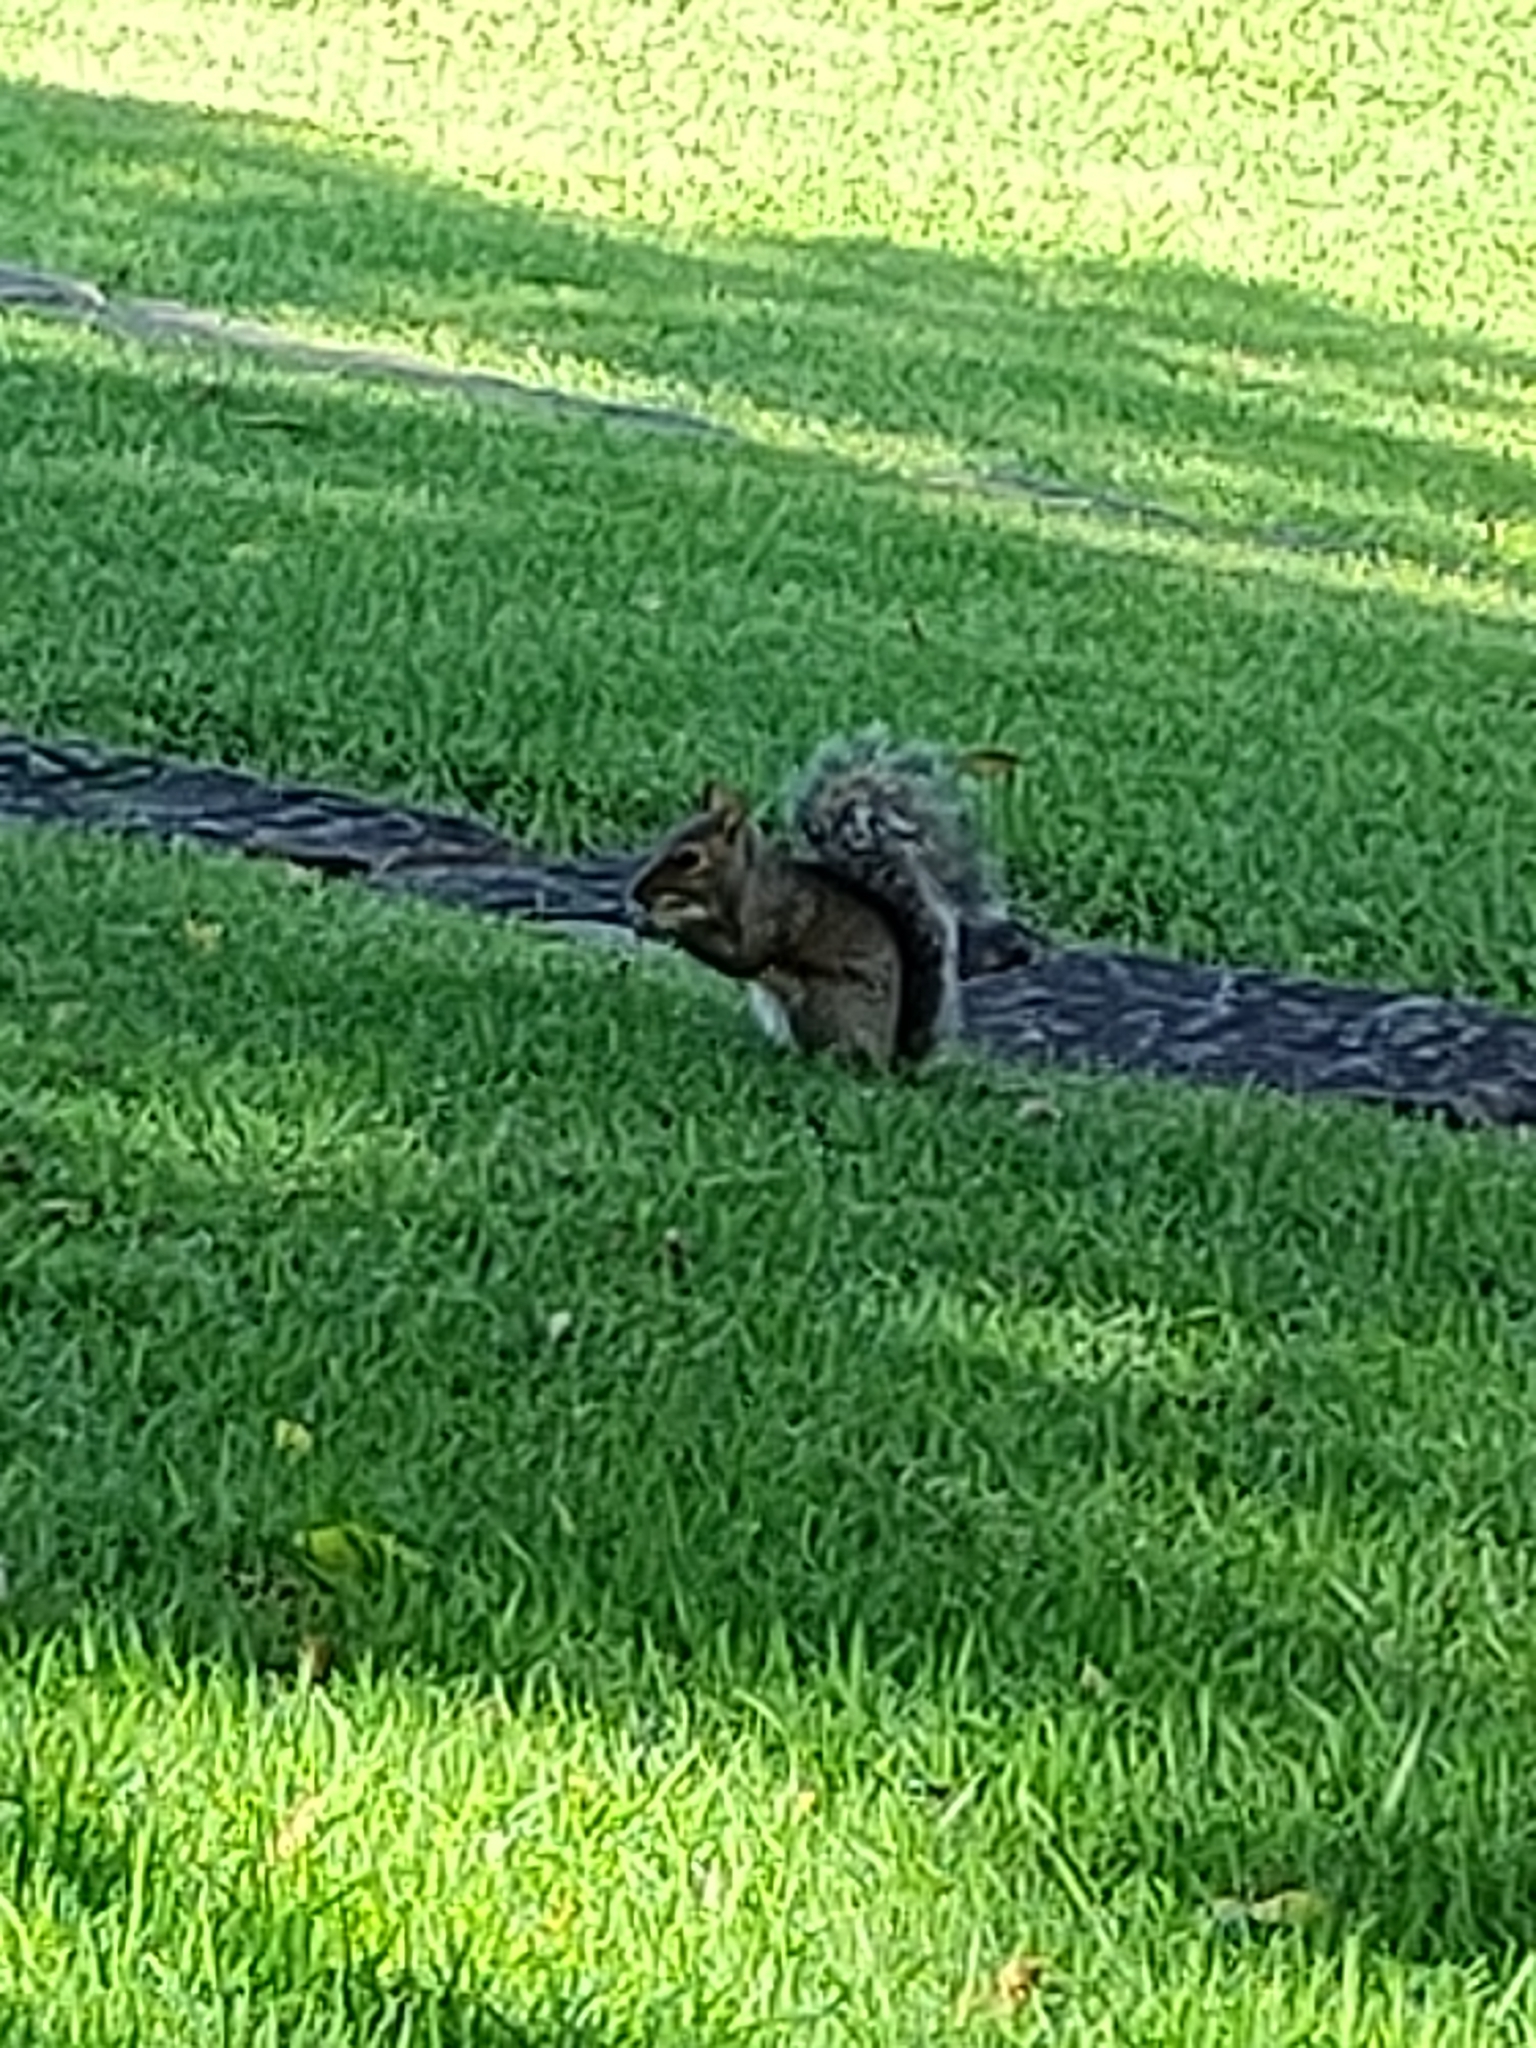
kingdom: Animalia
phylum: Chordata
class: Mammalia
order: Rodentia
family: Sciuridae
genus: Sciurus
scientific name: Sciurus carolinensis
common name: Eastern gray squirrel
